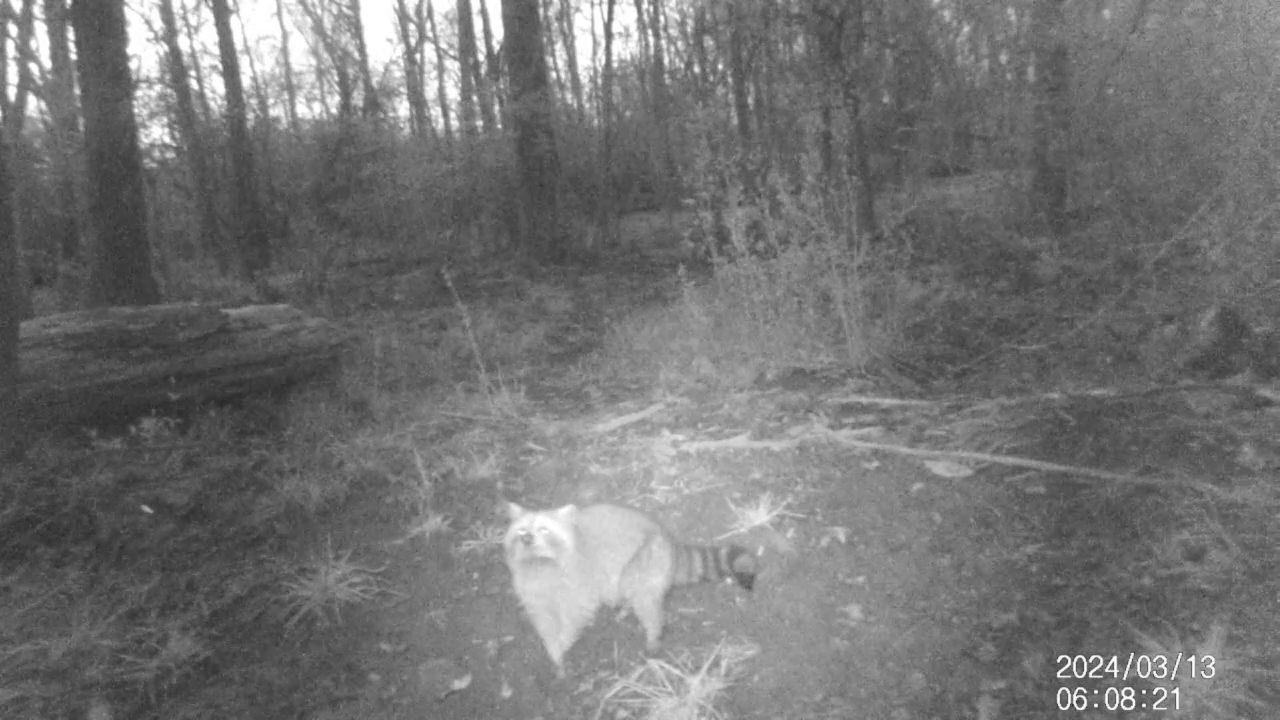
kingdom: Animalia
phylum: Chordata
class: Mammalia
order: Carnivora
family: Procyonidae
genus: Procyon
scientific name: Procyon lotor
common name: Raccoon
